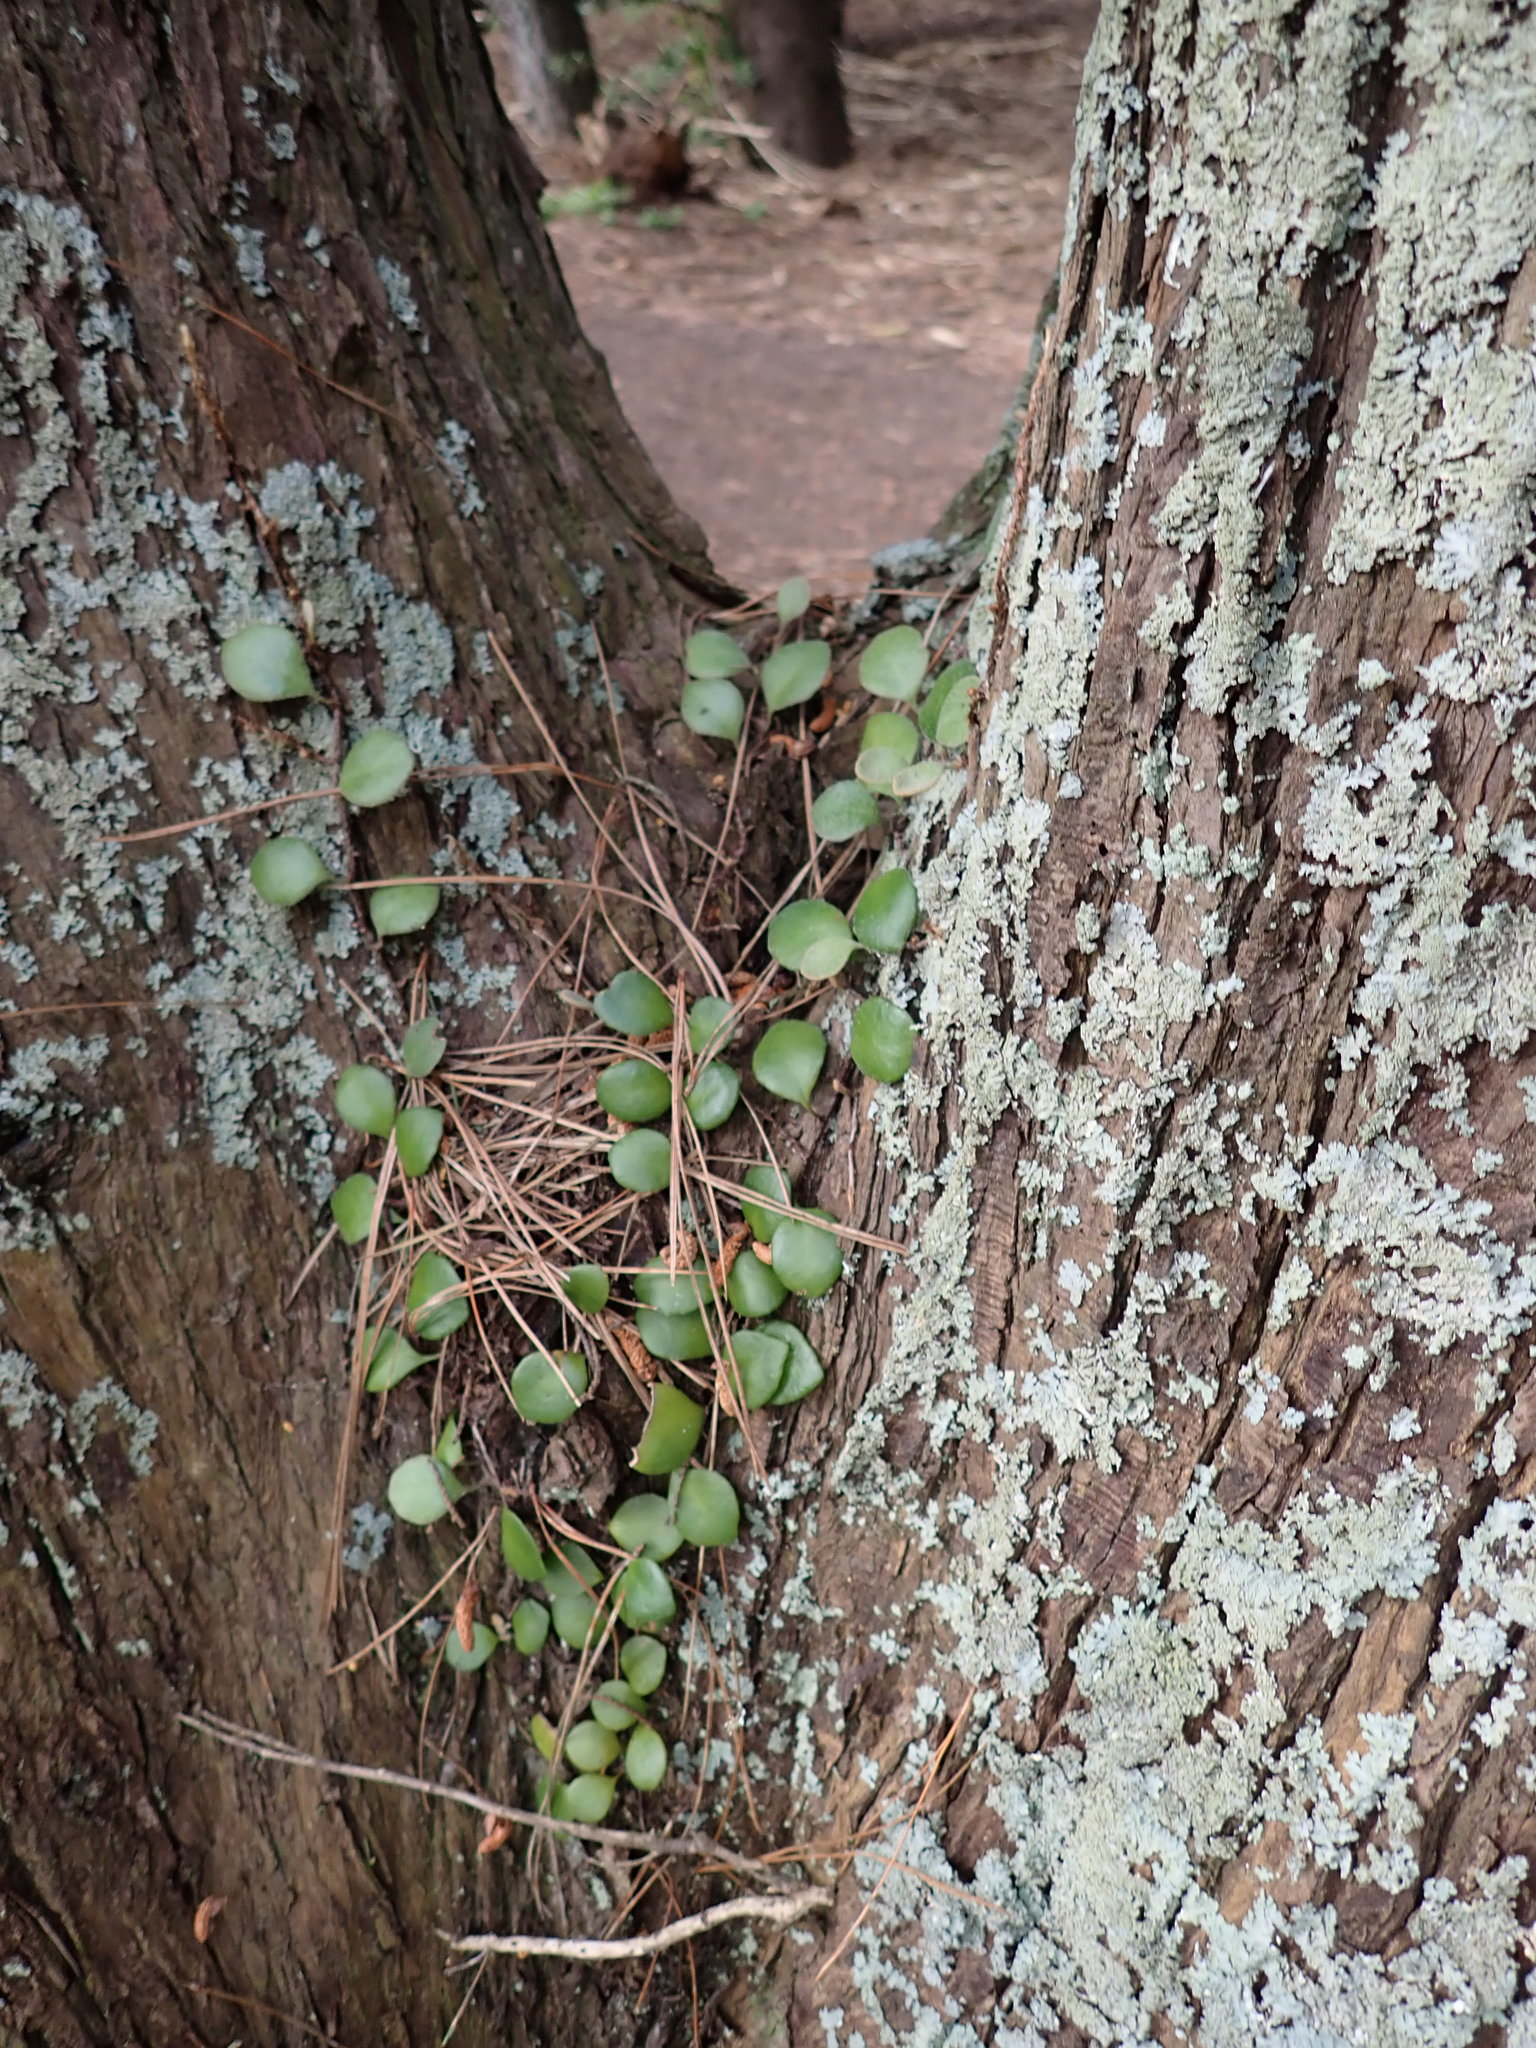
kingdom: Plantae
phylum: Tracheophyta
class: Polypodiopsida
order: Polypodiales
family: Polypodiaceae
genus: Pyrrosia
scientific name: Pyrrosia eleagnifolia
